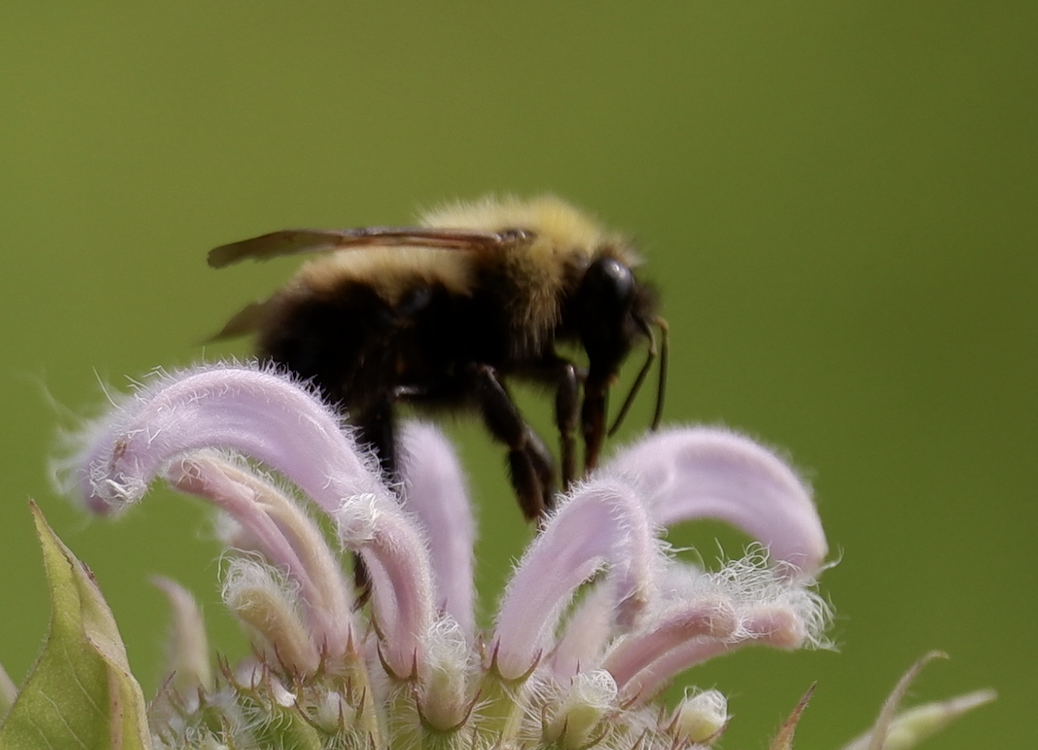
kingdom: Animalia
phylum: Arthropoda
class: Insecta
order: Hymenoptera
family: Apidae
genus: Bombus
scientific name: Bombus griseocollis
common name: Brown-belted bumble bee
